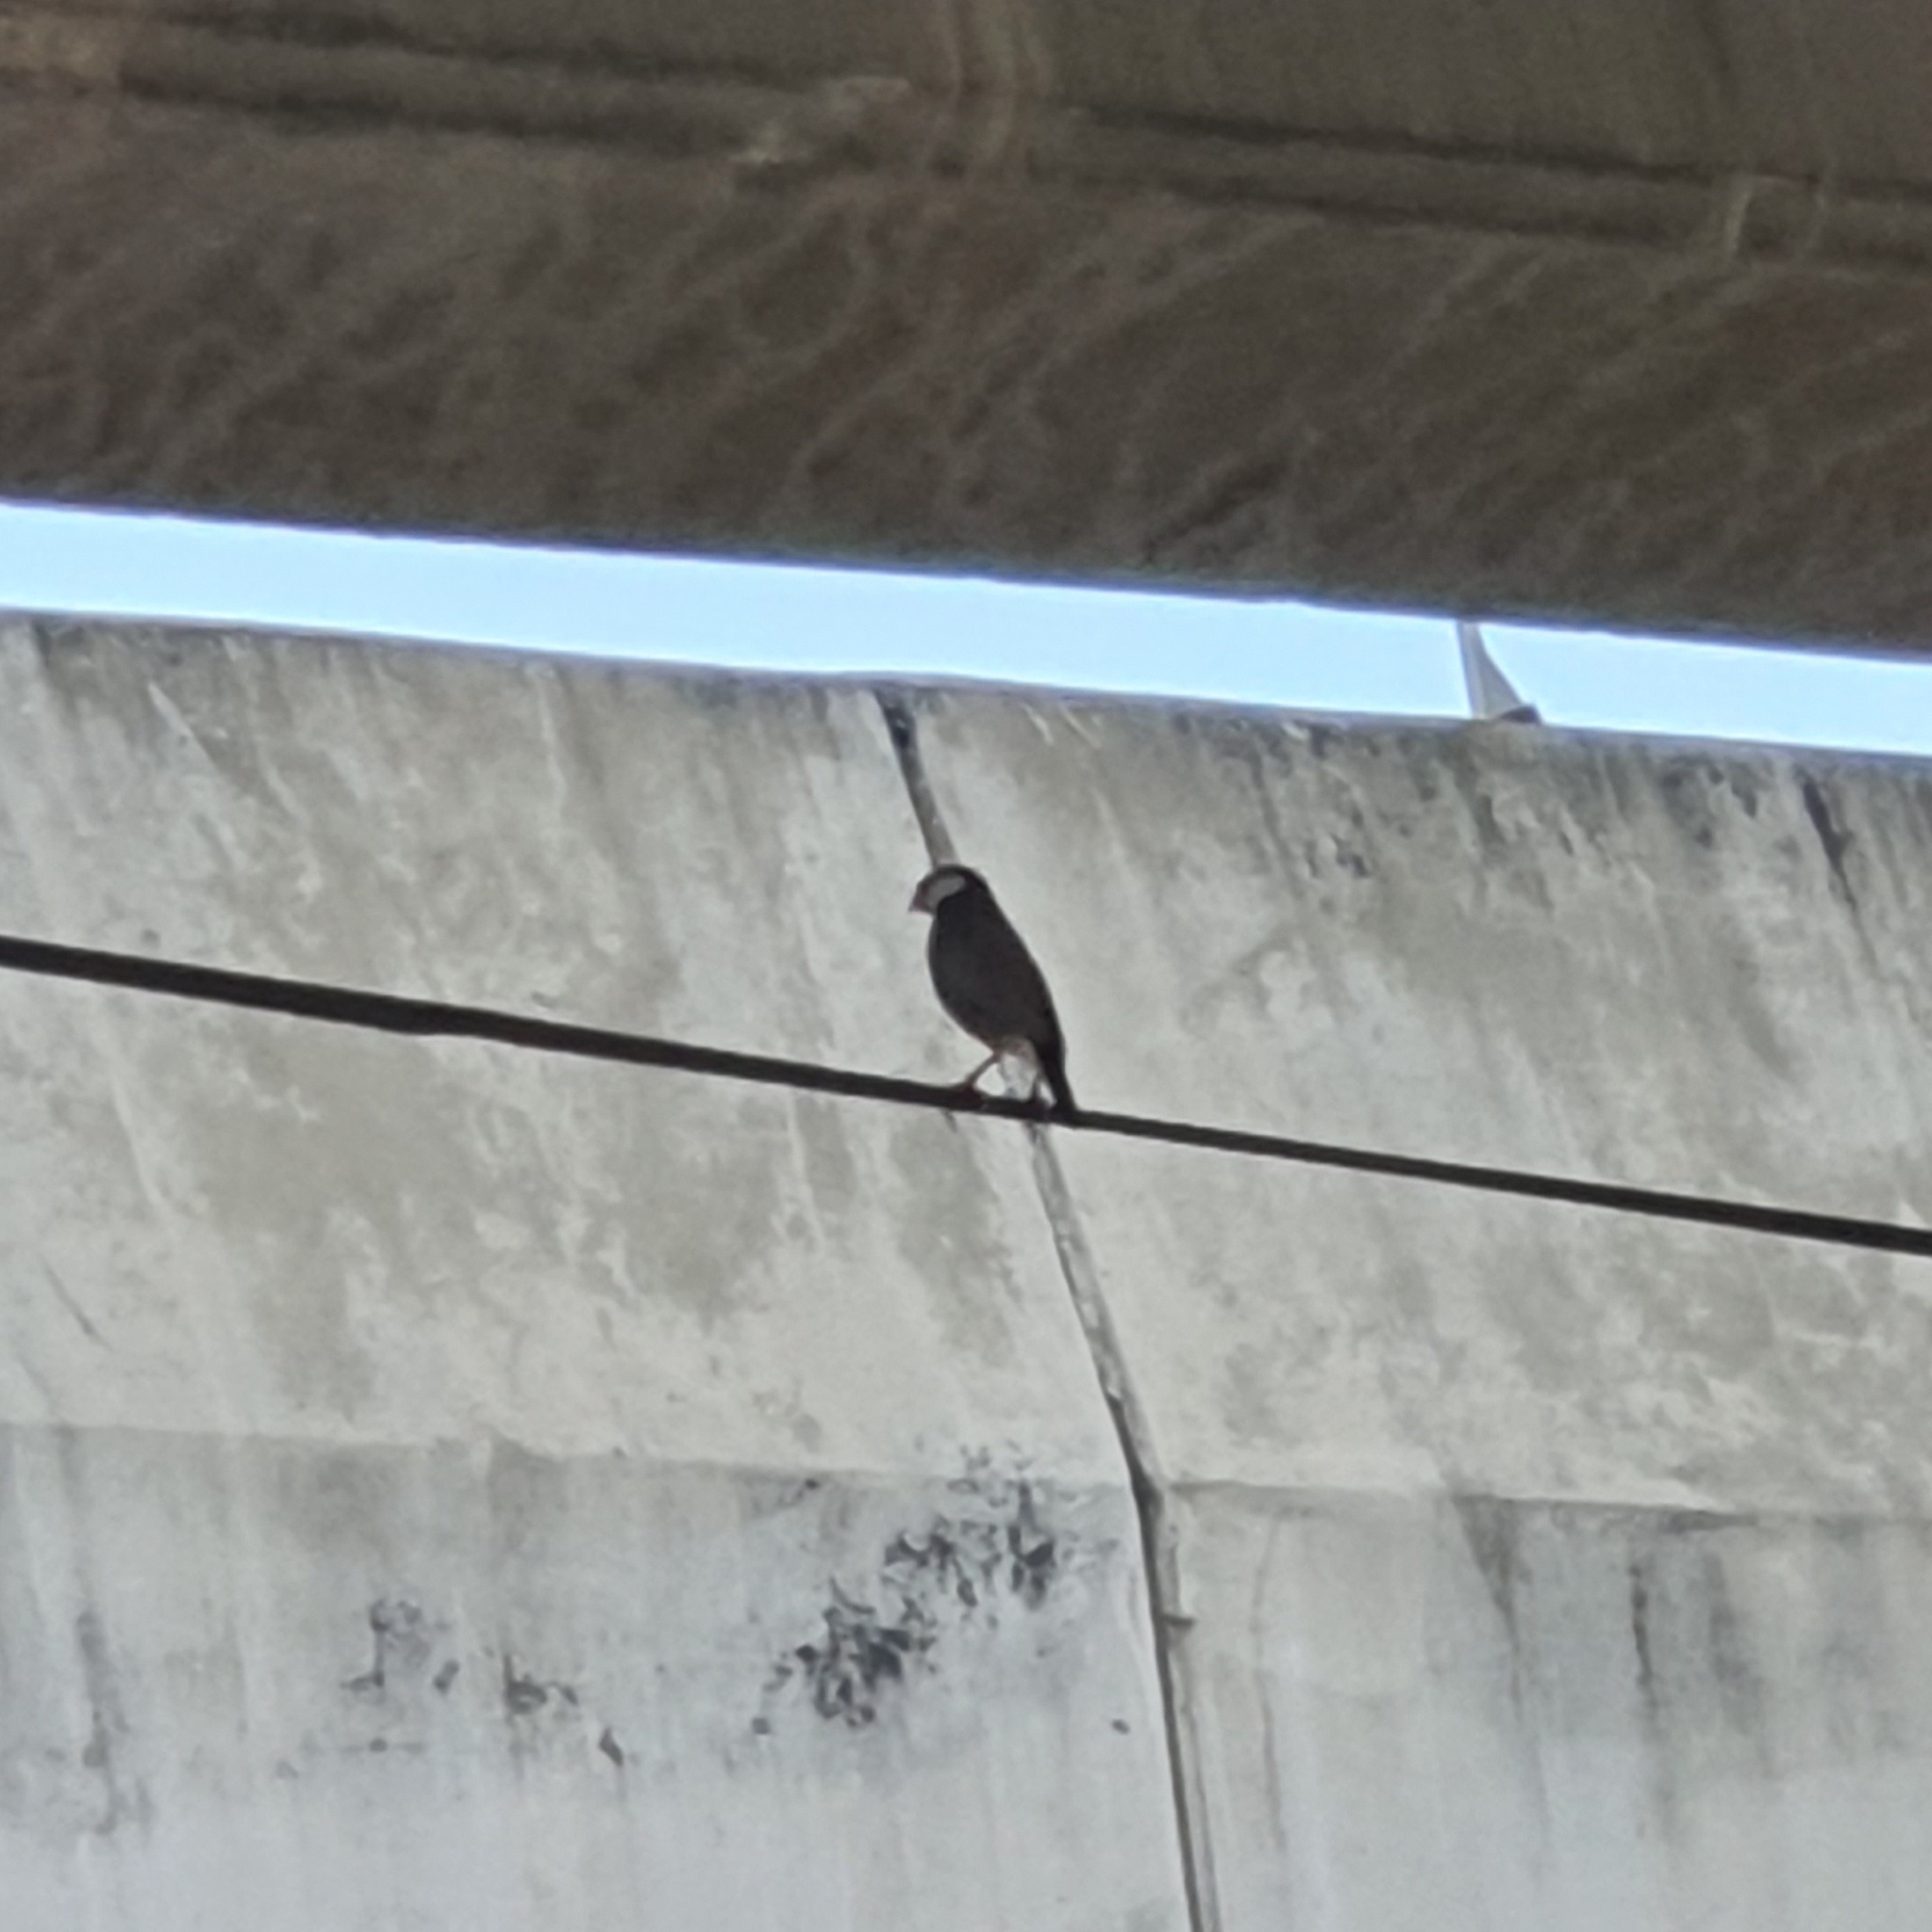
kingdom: Animalia
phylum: Chordata
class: Aves
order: Passeriformes
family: Estrildidae
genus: Lonchura
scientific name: Lonchura oryzivora
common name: Java sparrow
